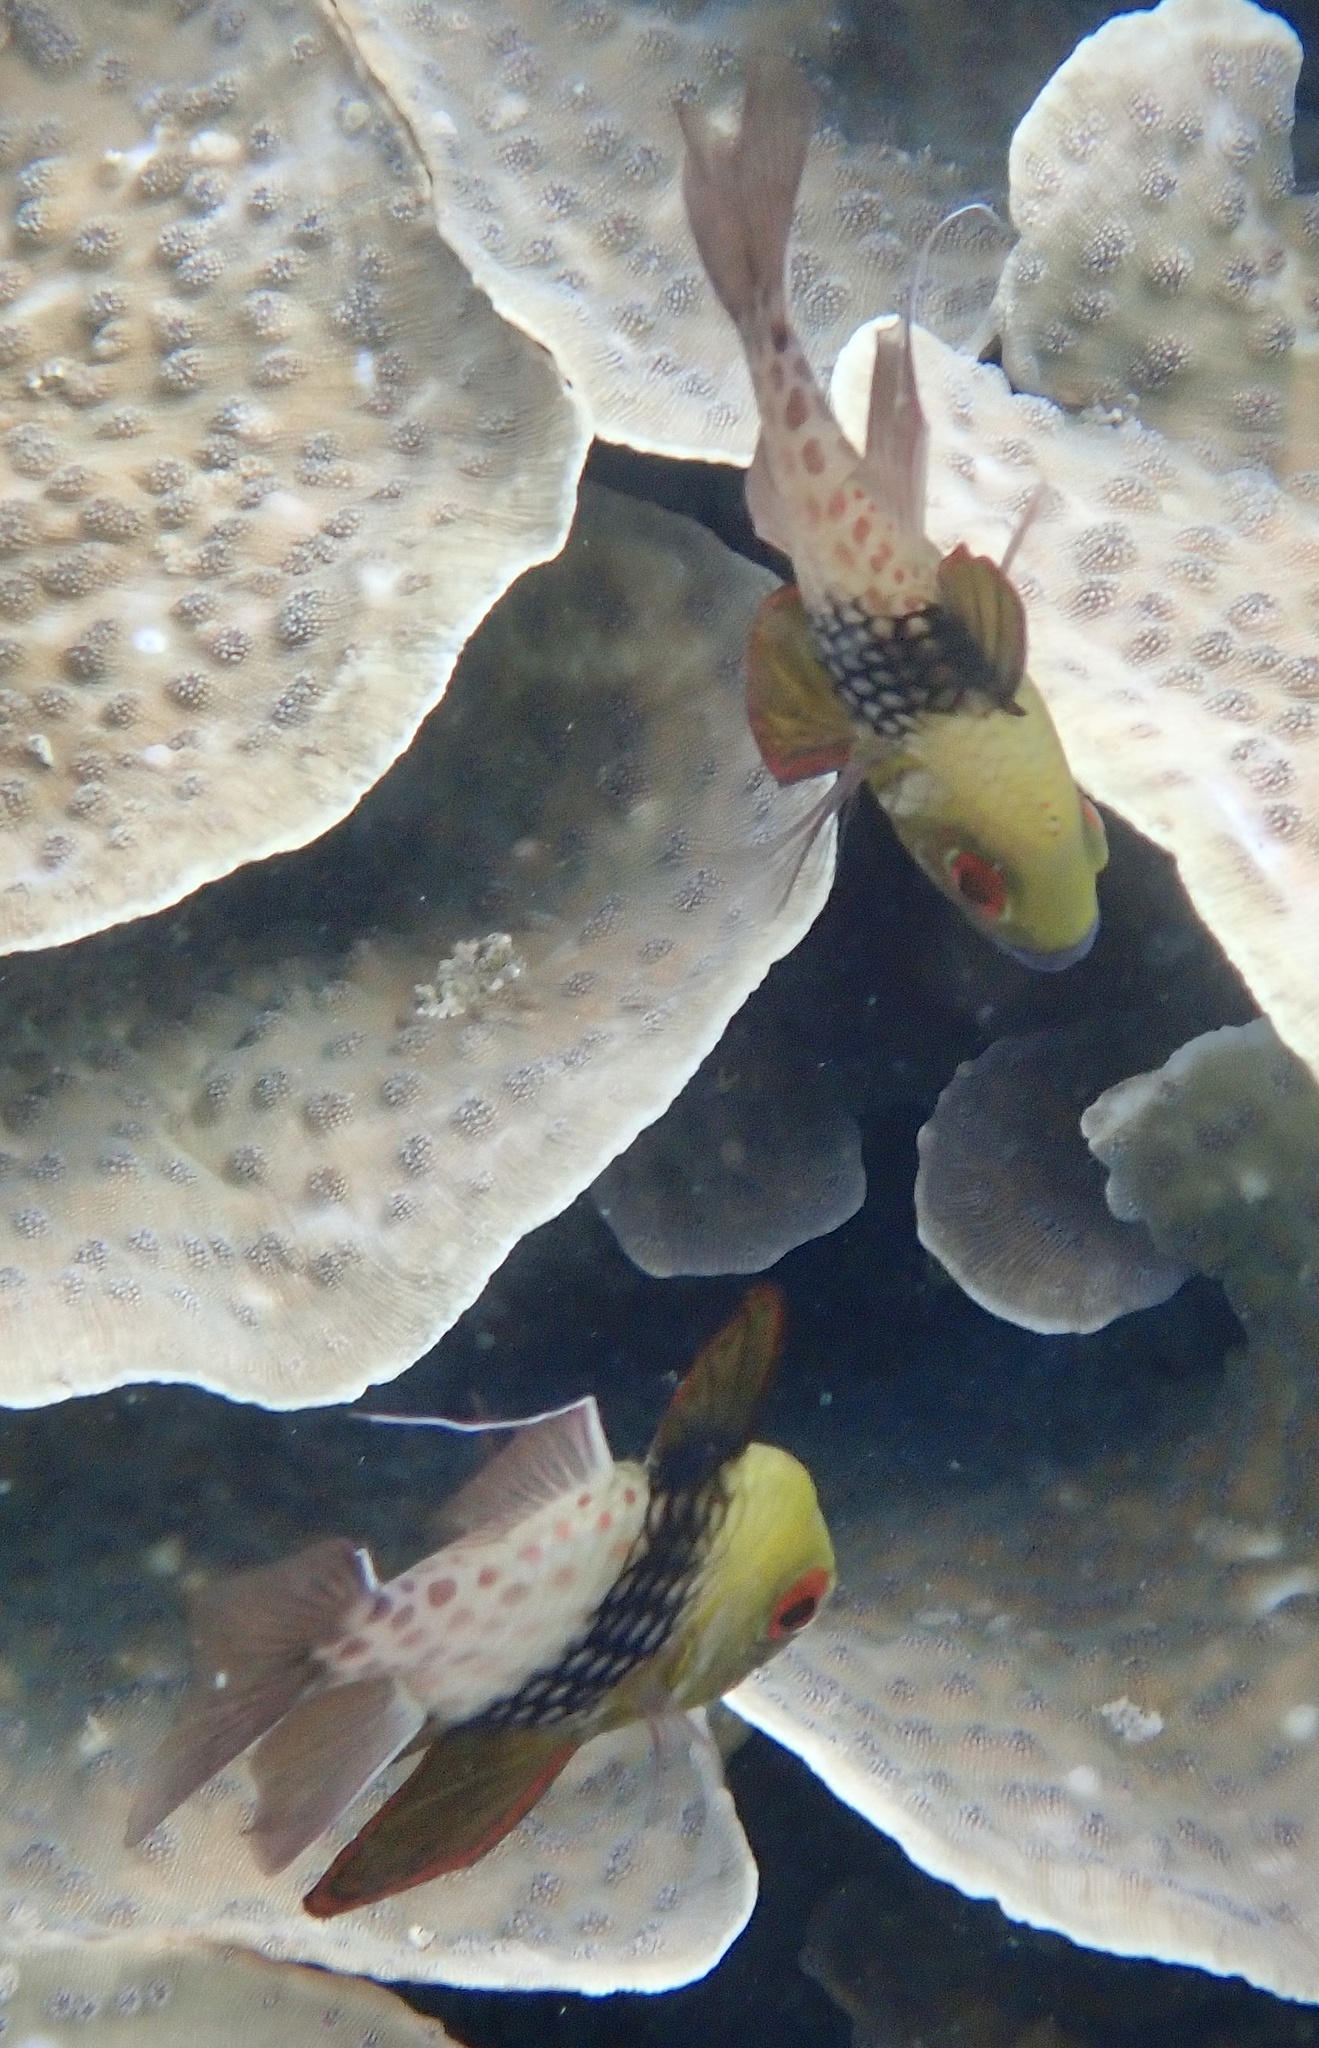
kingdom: Animalia
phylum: Chordata
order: Perciformes
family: Apogonidae
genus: Sphaeramia
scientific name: Sphaeramia nematoptera
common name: Pajama cardinalfish
